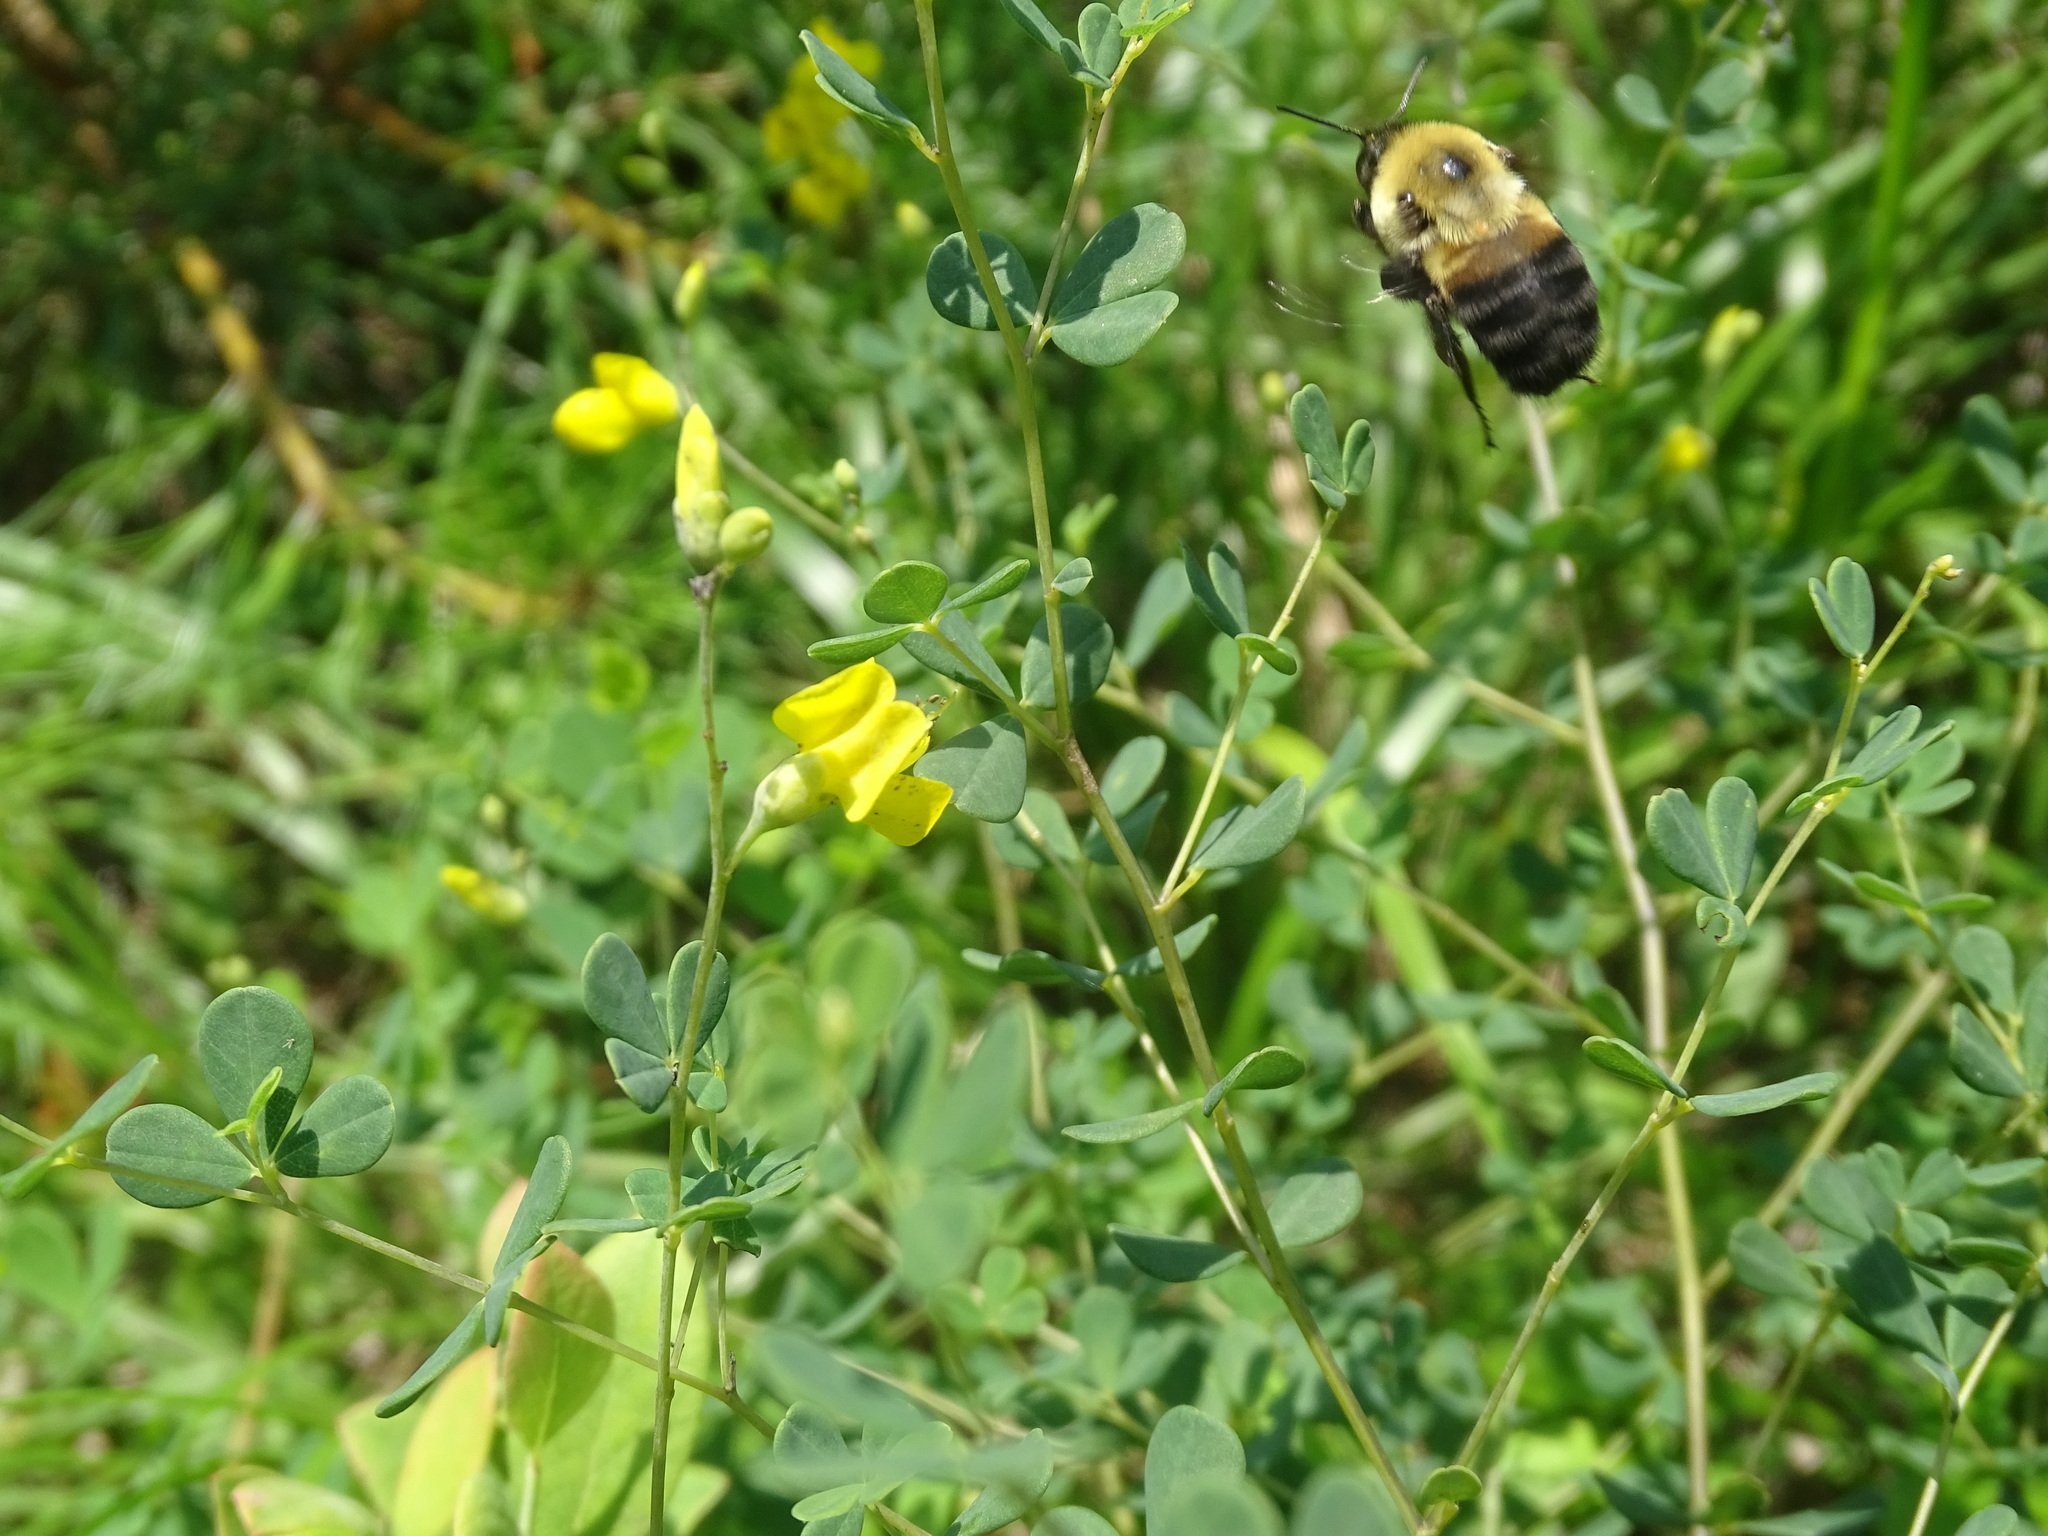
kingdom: Animalia
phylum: Arthropoda
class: Insecta
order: Hymenoptera
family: Apidae
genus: Bombus
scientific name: Bombus griseocollis
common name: Brown-belted bumble bee
